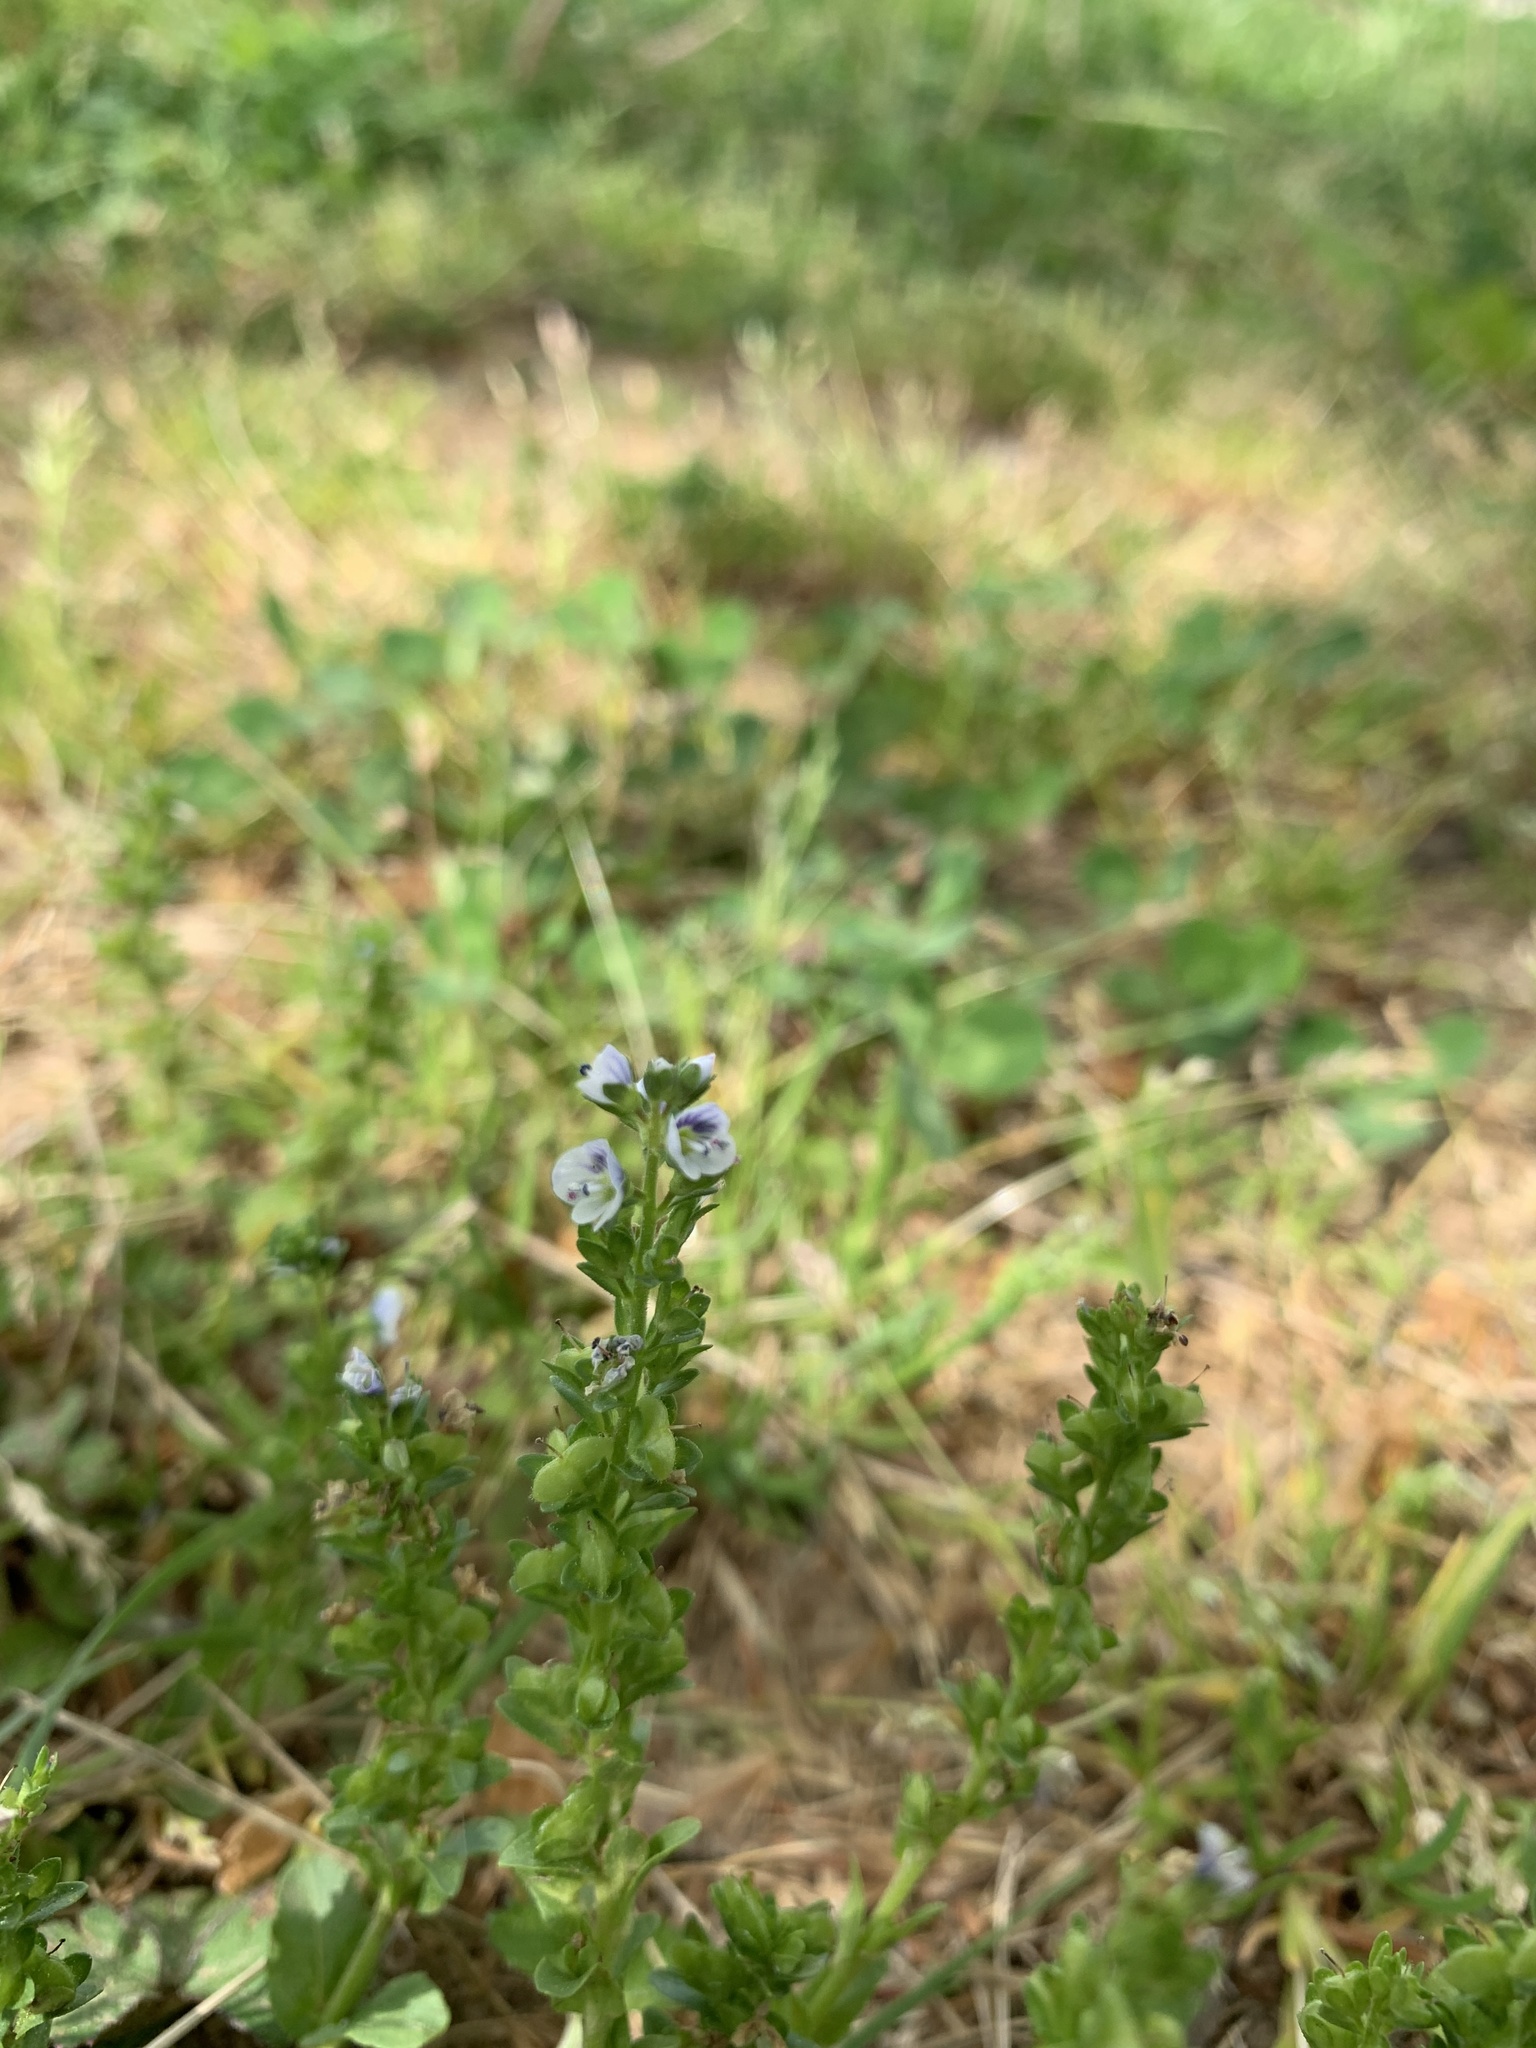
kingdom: Plantae
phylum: Tracheophyta
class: Magnoliopsida
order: Lamiales
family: Plantaginaceae
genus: Veronica
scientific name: Veronica serpyllifolia
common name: Thyme-leaved speedwell
